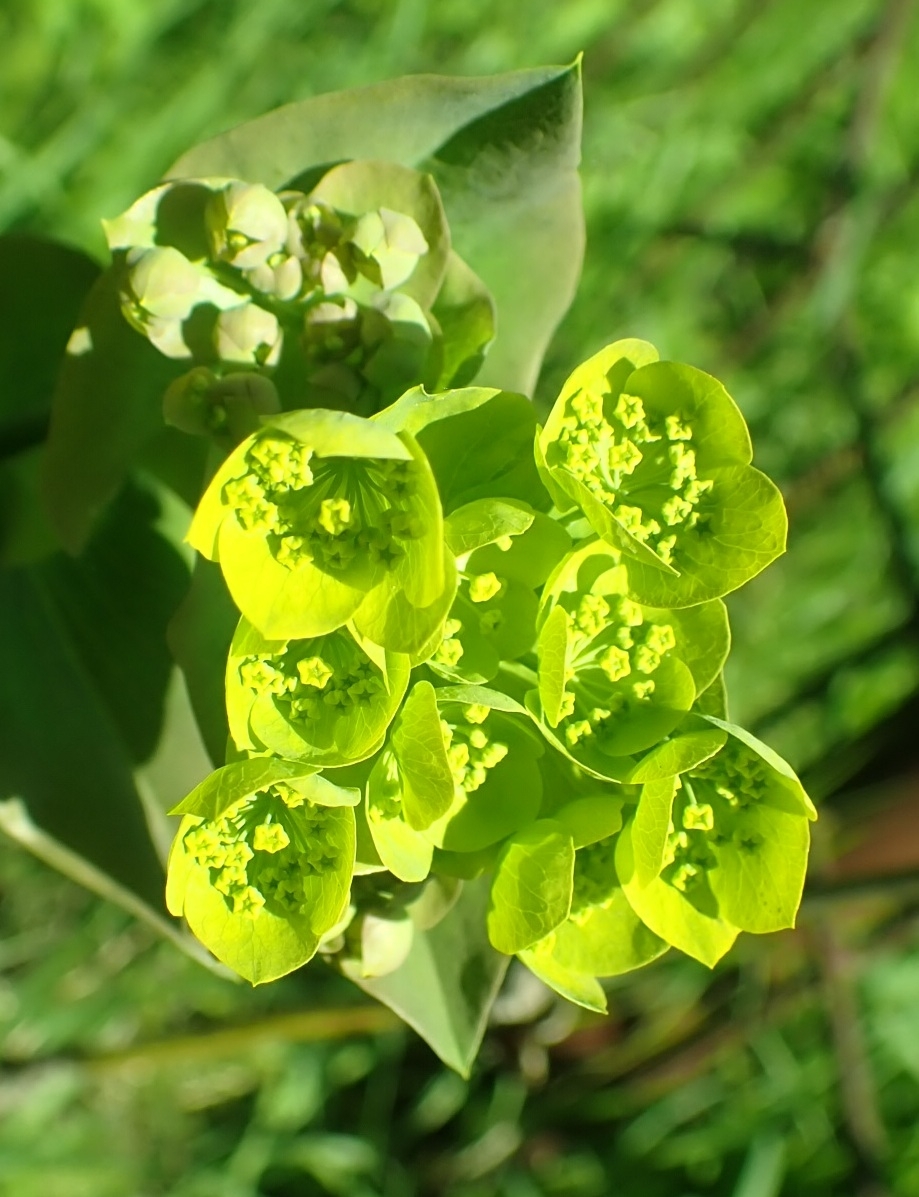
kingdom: Plantae
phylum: Tracheophyta
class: Magnoliopsida
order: Apiales
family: Apiaceae
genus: Bupleurum
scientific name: Bupleurum aureum
